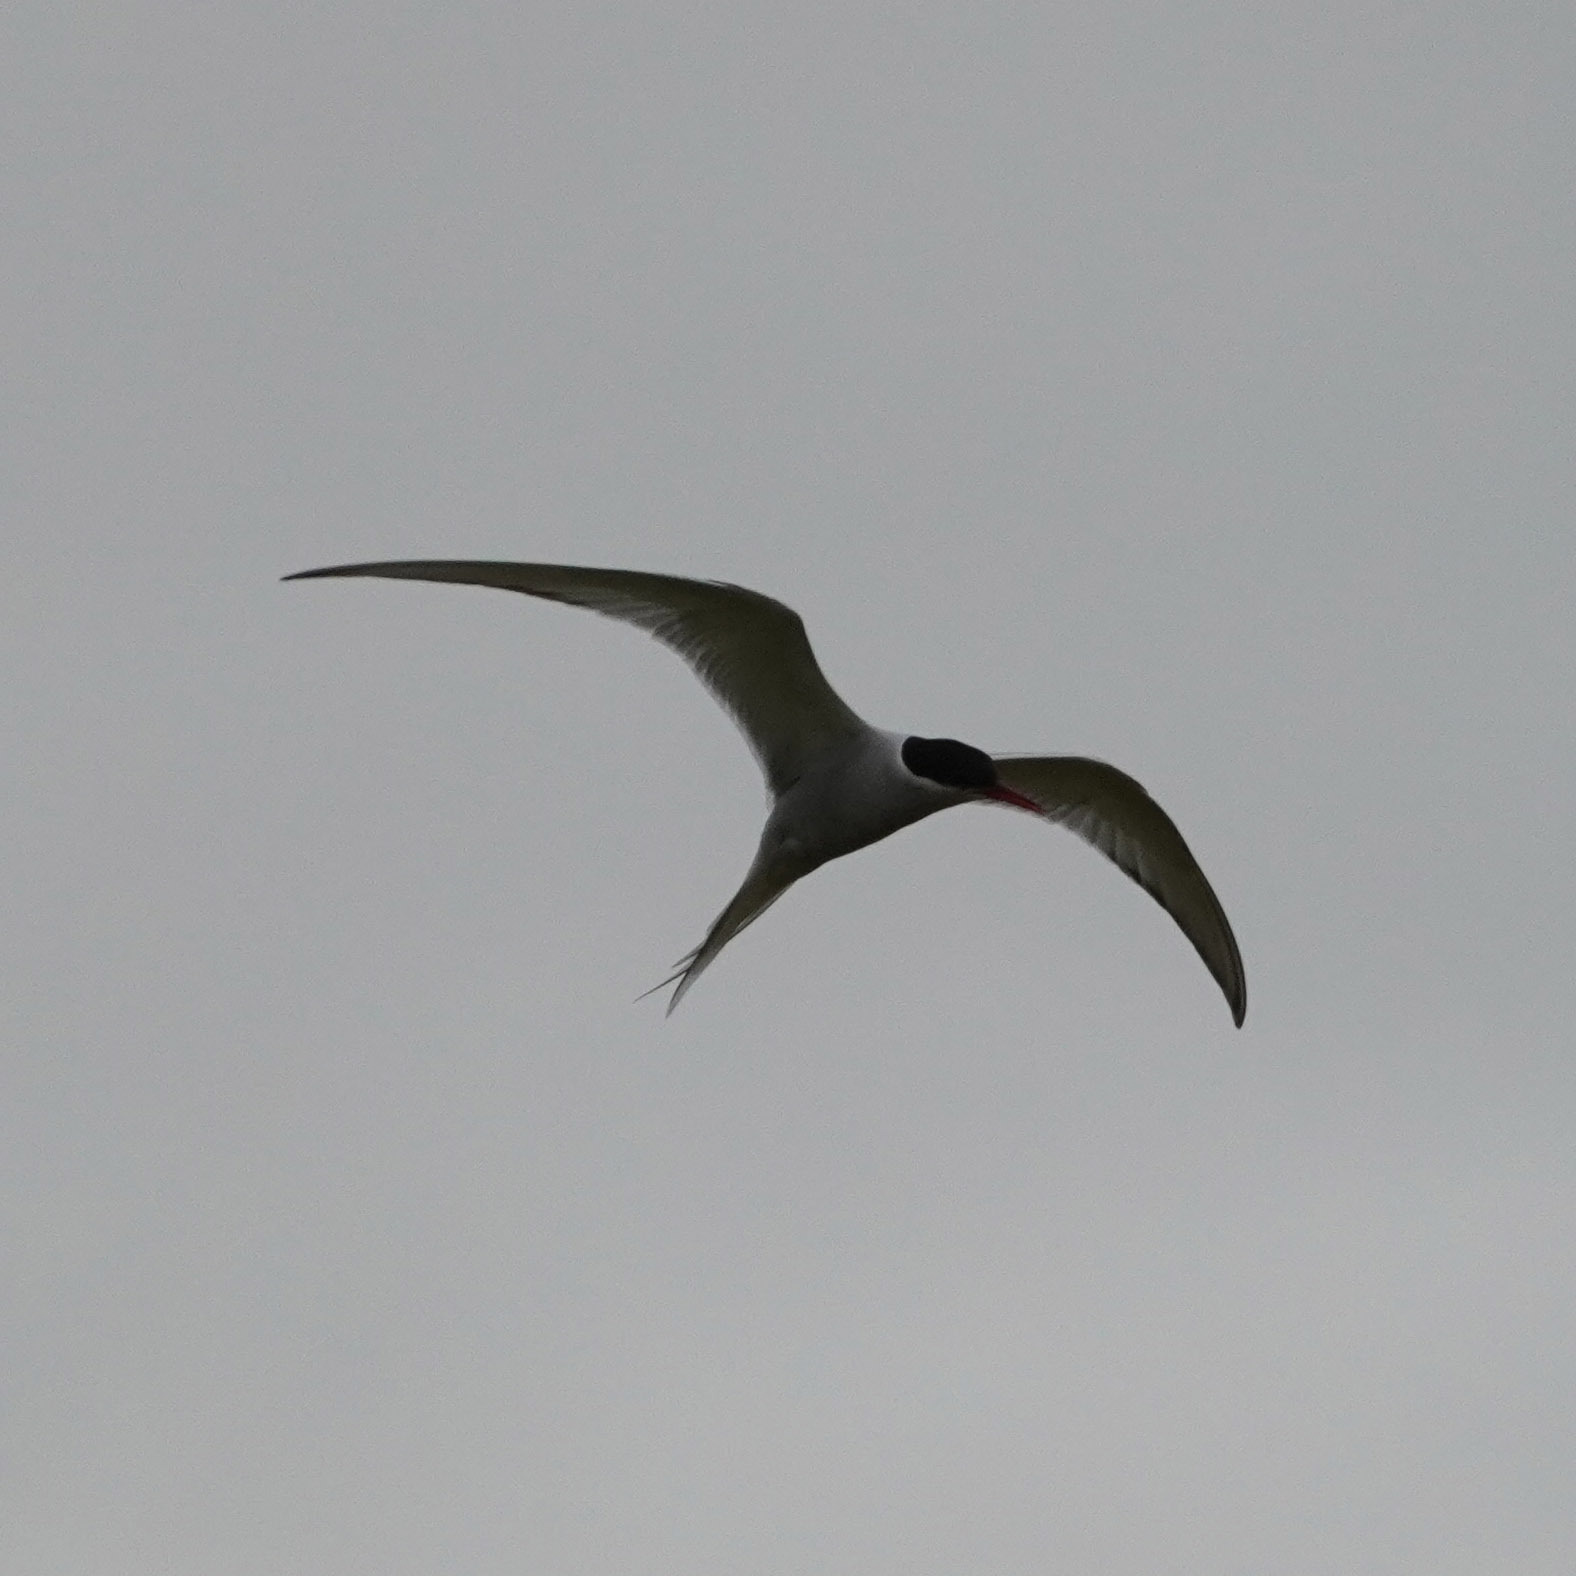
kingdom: Animalia
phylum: Chordata
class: Aves
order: Charadriiformes
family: Laridae
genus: Sterna
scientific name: Sterna paradisaea
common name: Arctic tern
